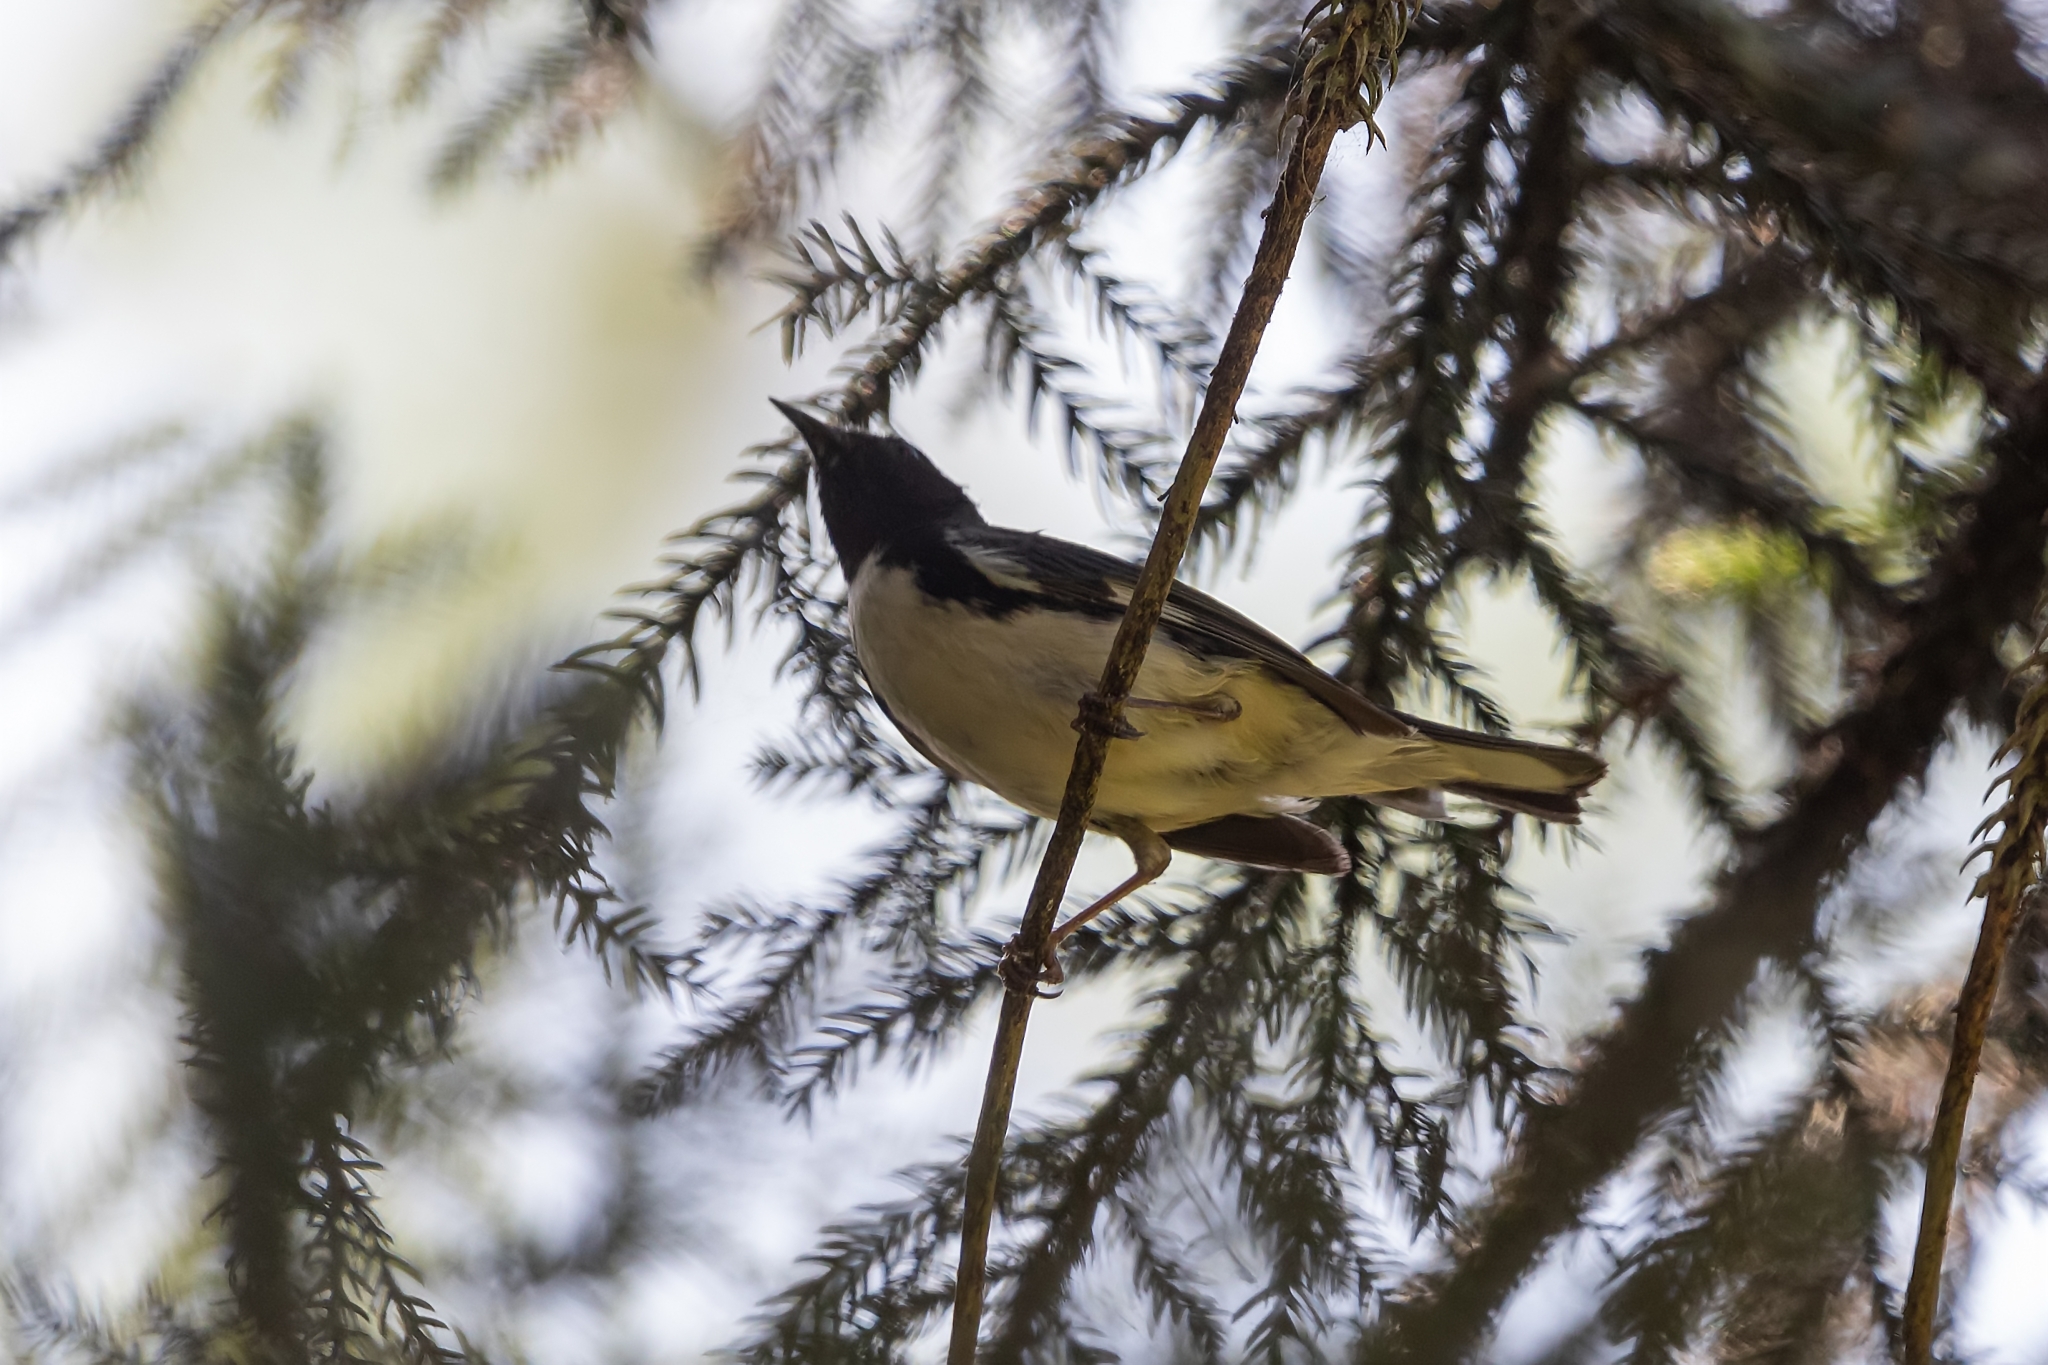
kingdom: Animalia
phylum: Chordata
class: Aves
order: Passeriformes
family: Parulidae
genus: Setophaga
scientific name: Setophaga caerulescens
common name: Black-throated blue warbler
